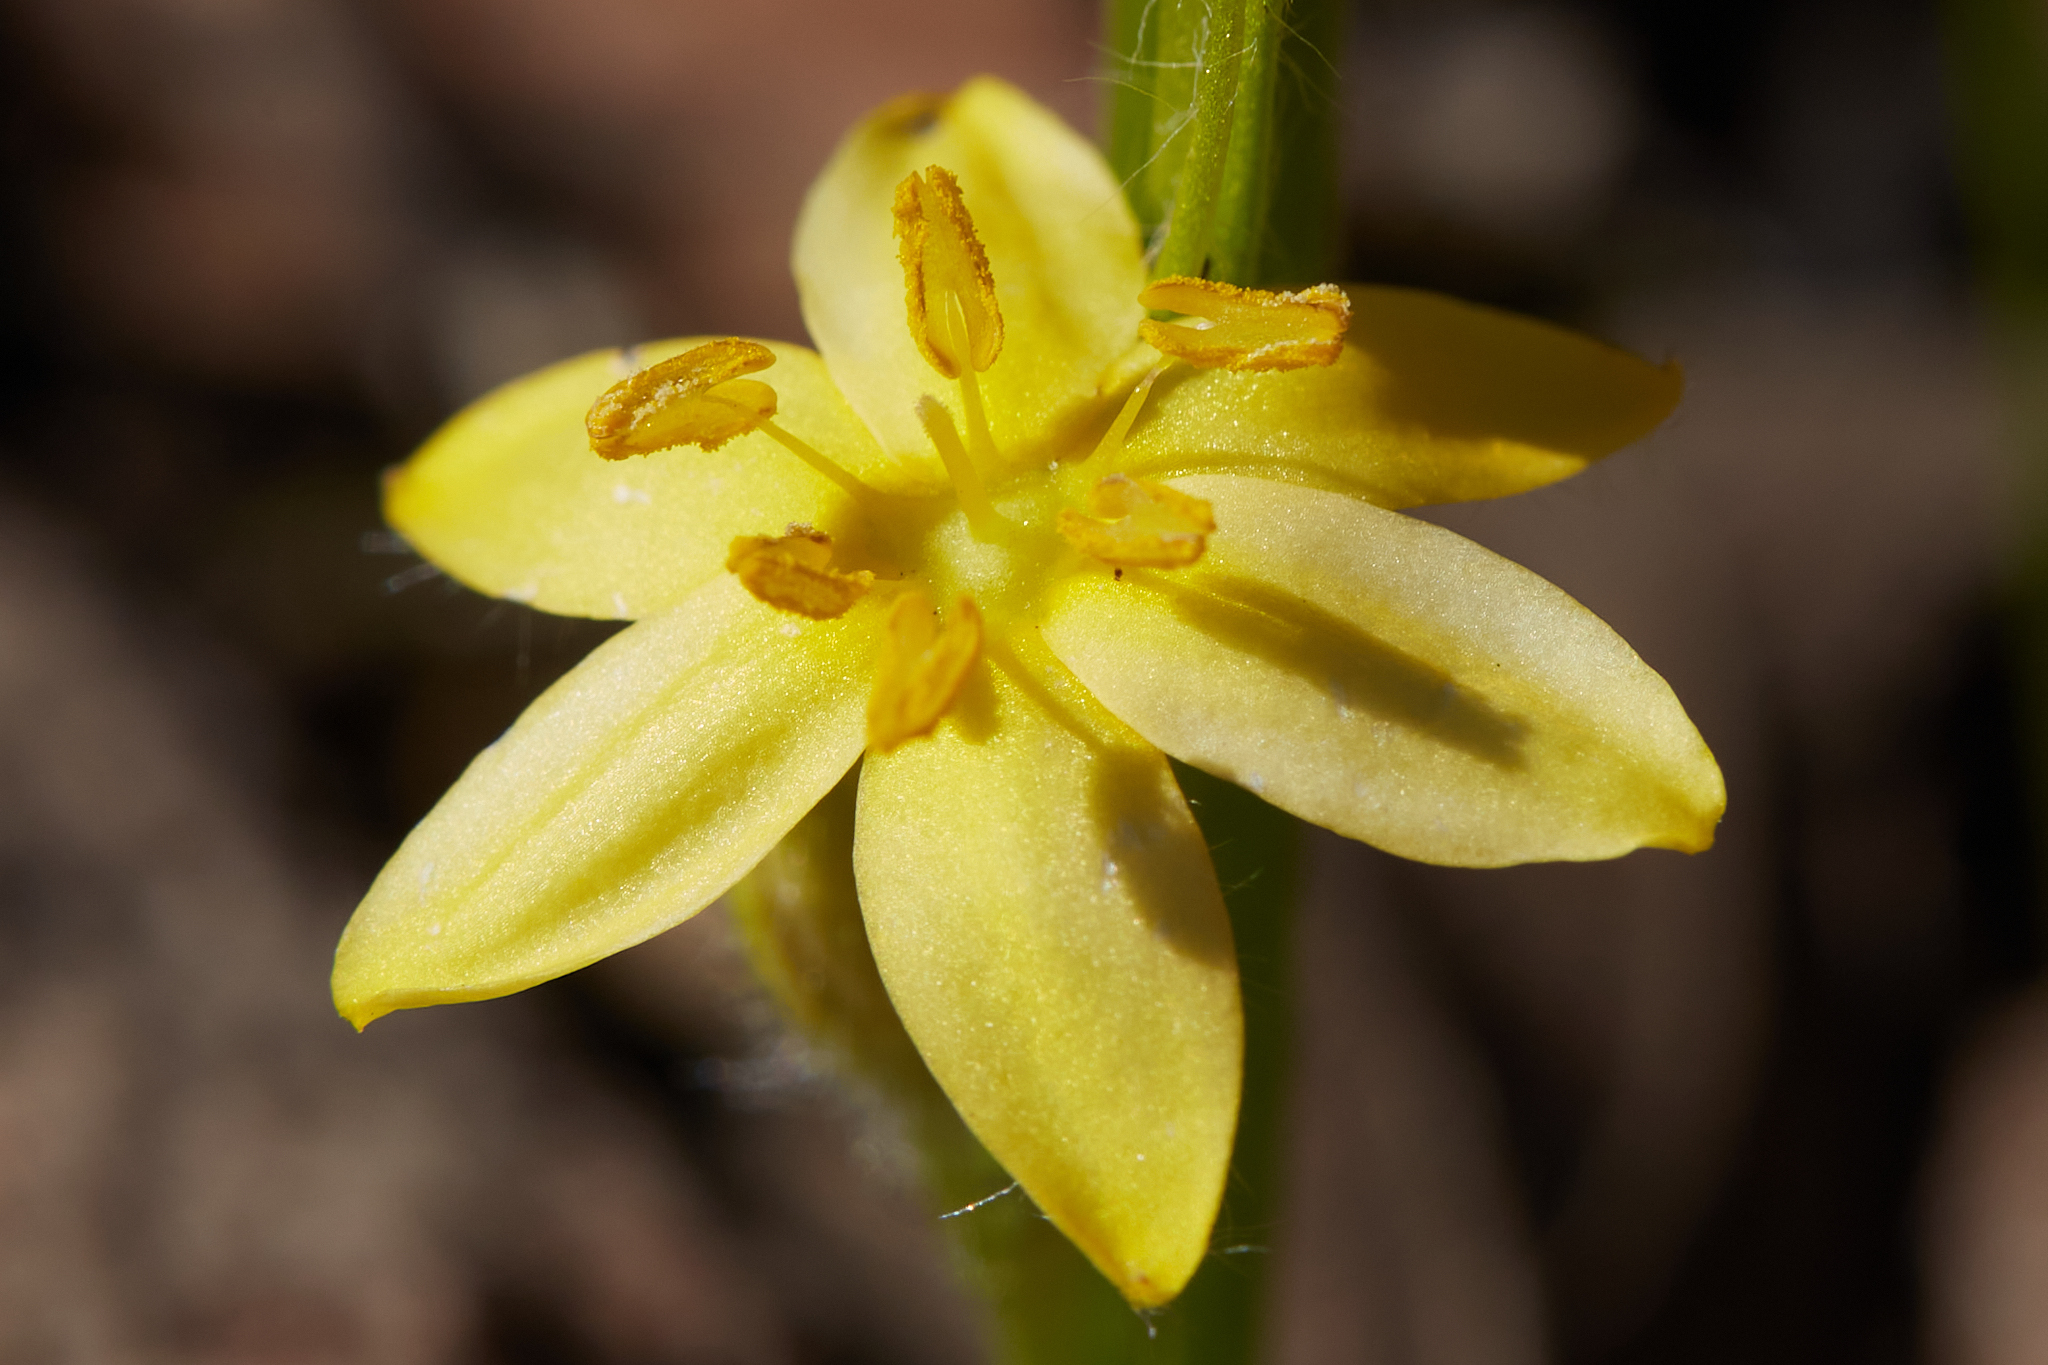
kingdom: Plantae
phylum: Tracheophyta
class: Liliopsida
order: Asparagales
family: Hypoxidaceae
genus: Hypoxis
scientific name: Hypoxis hirsuta
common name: Common goldstar
